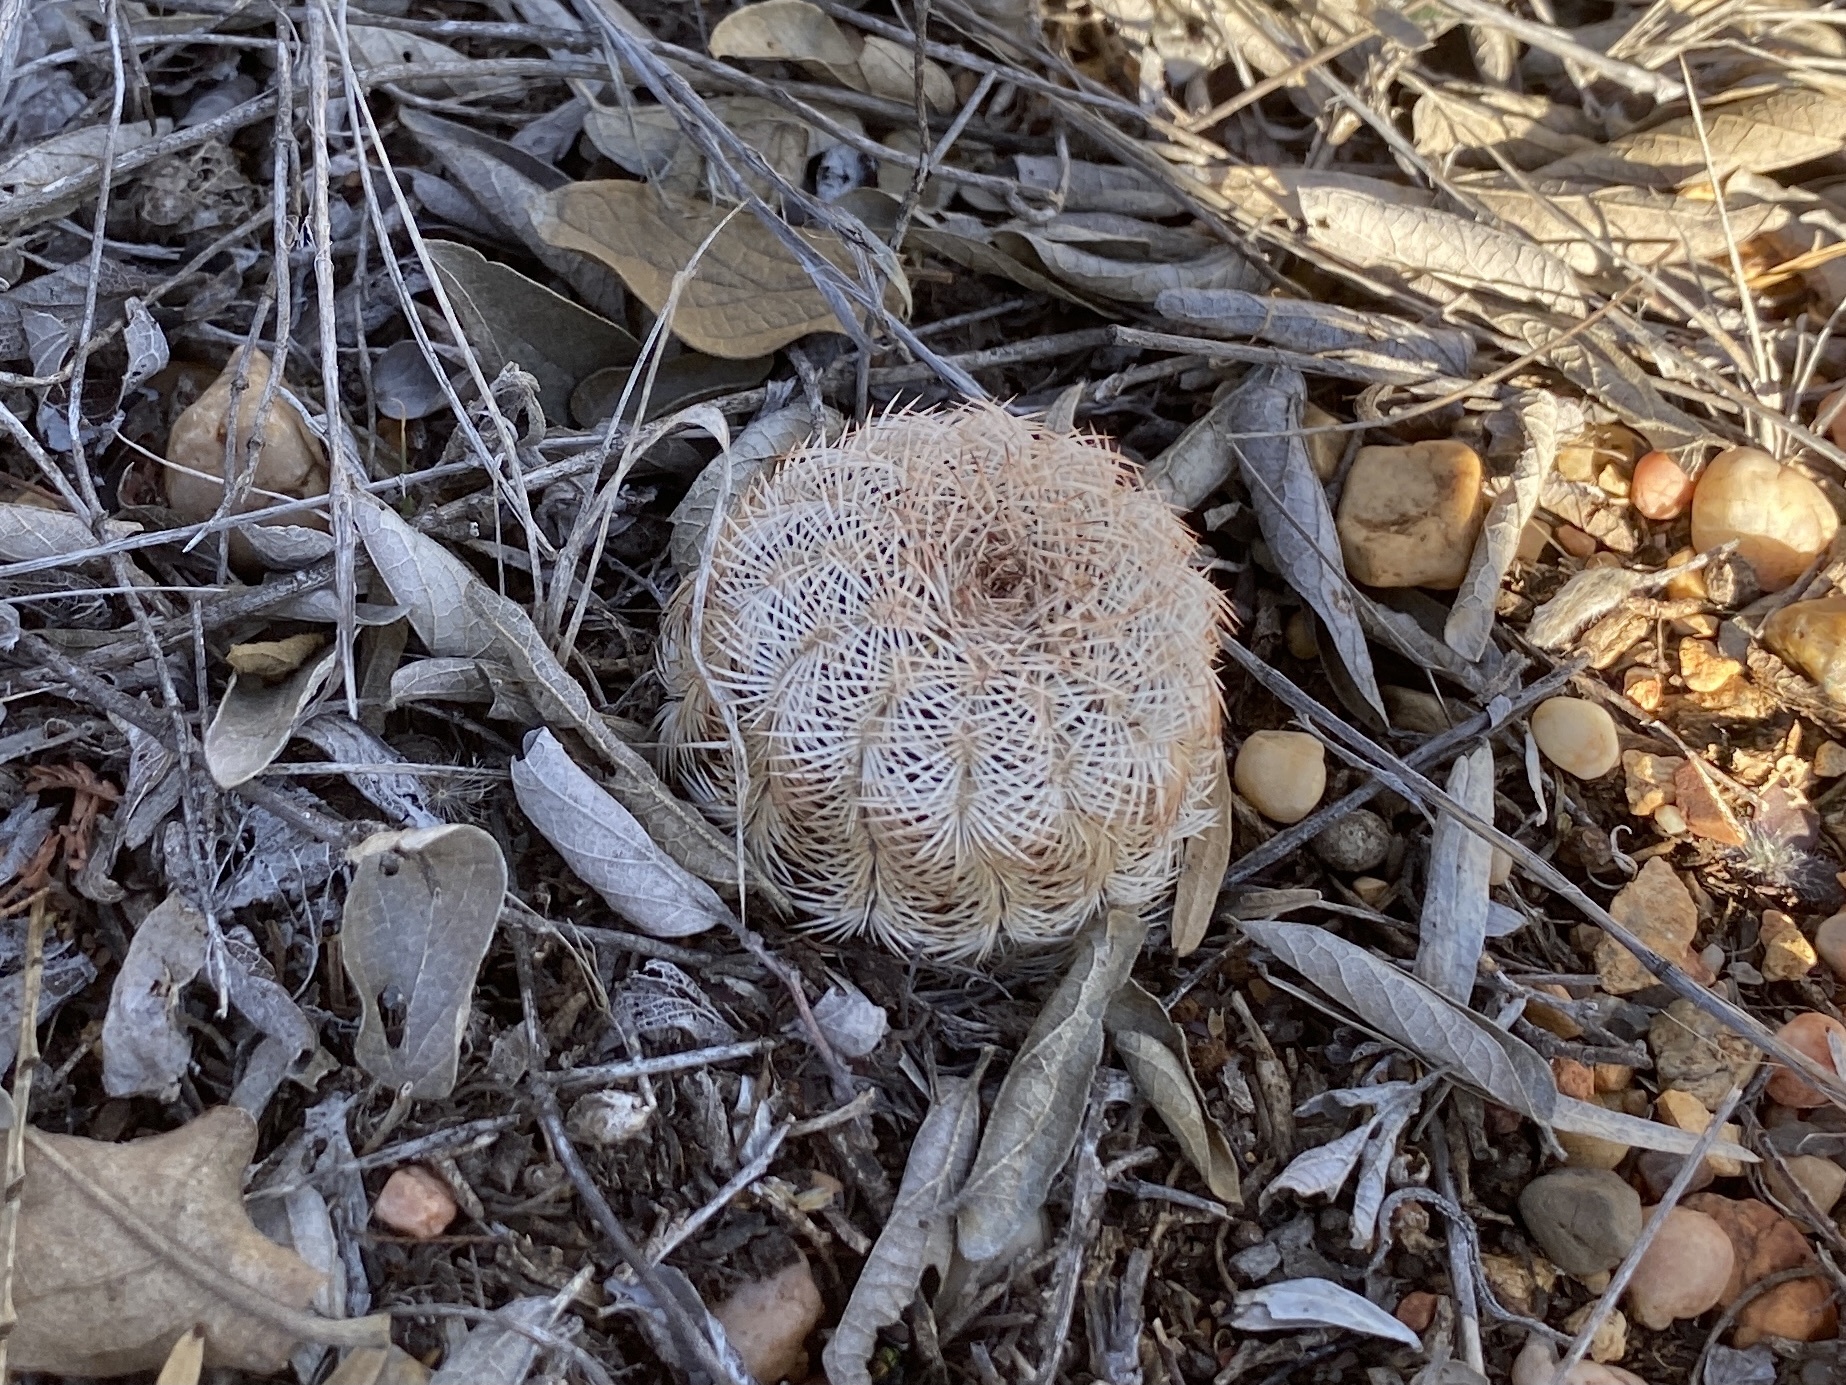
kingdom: Plantae
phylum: Tracheophyta
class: Magnoliopsida
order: Caryophyllales
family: Cactaceae
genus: Echinocereus
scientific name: Echinocereus reichenbachii
